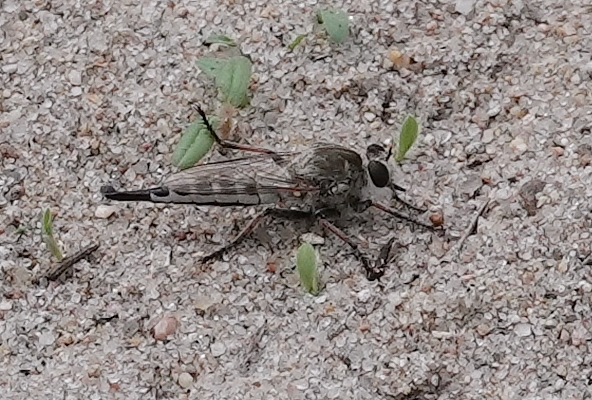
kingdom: Animalia
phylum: Arthropoda
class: Insecta
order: Diptera
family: Asilidae
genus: Efferia
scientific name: Efferia albibarbis
